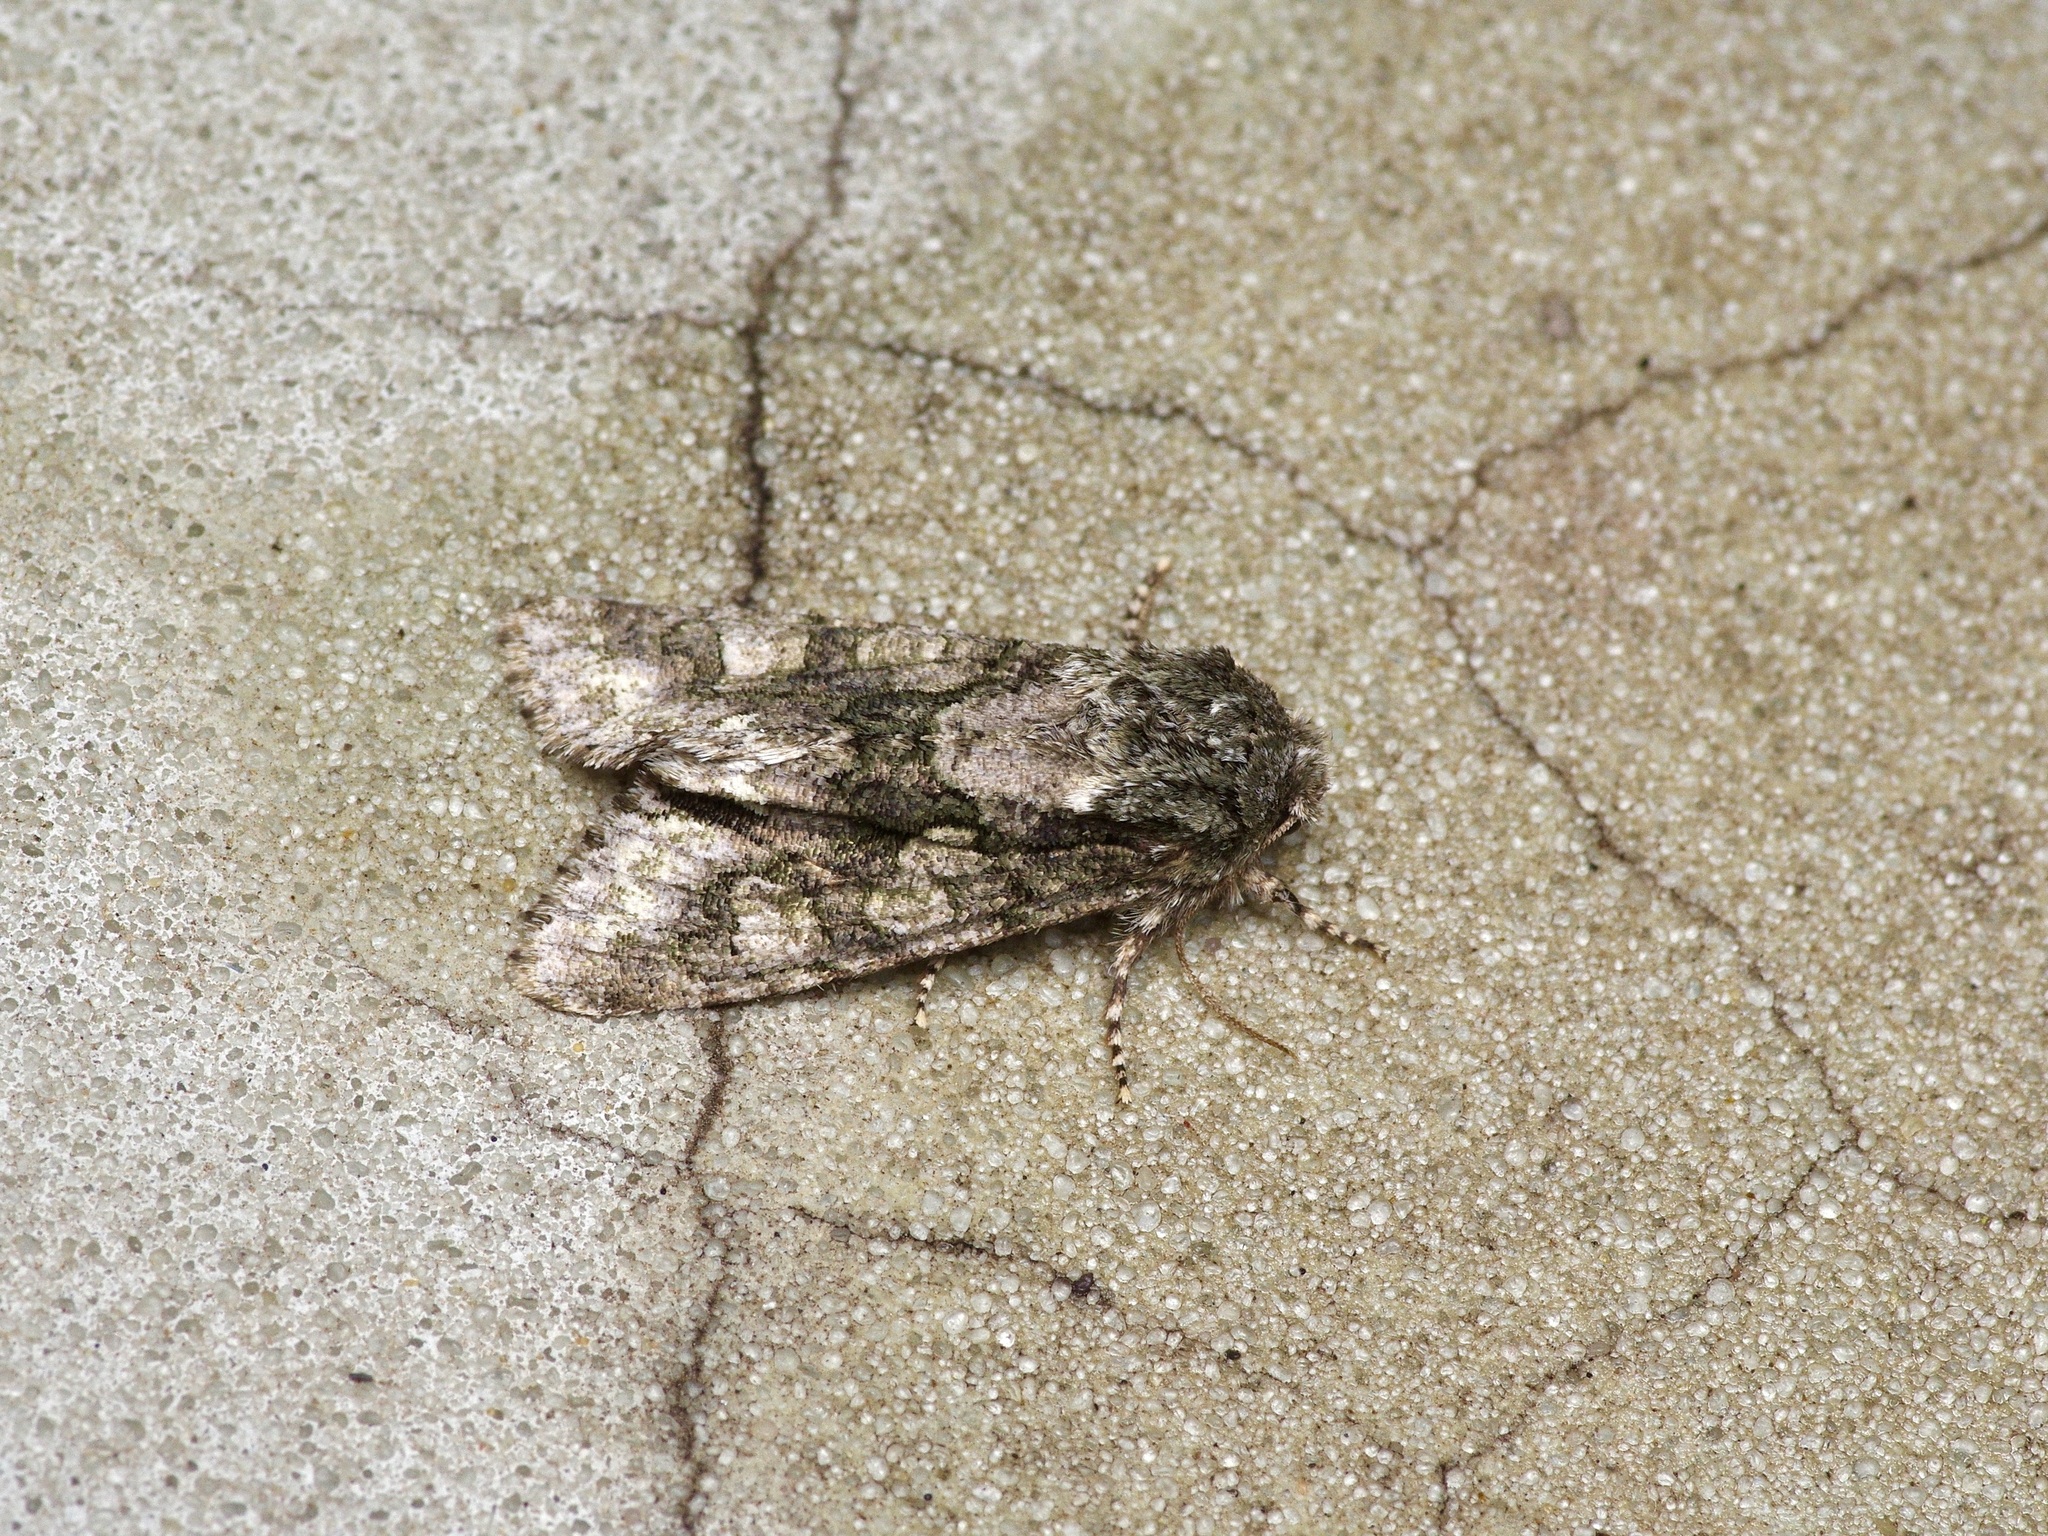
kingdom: Animalia
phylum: Arthropoda
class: Insecta
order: Lepidoptera
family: Noctuidae
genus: Psaphida
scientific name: Psaphida resumens
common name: Figure-eight sallow
